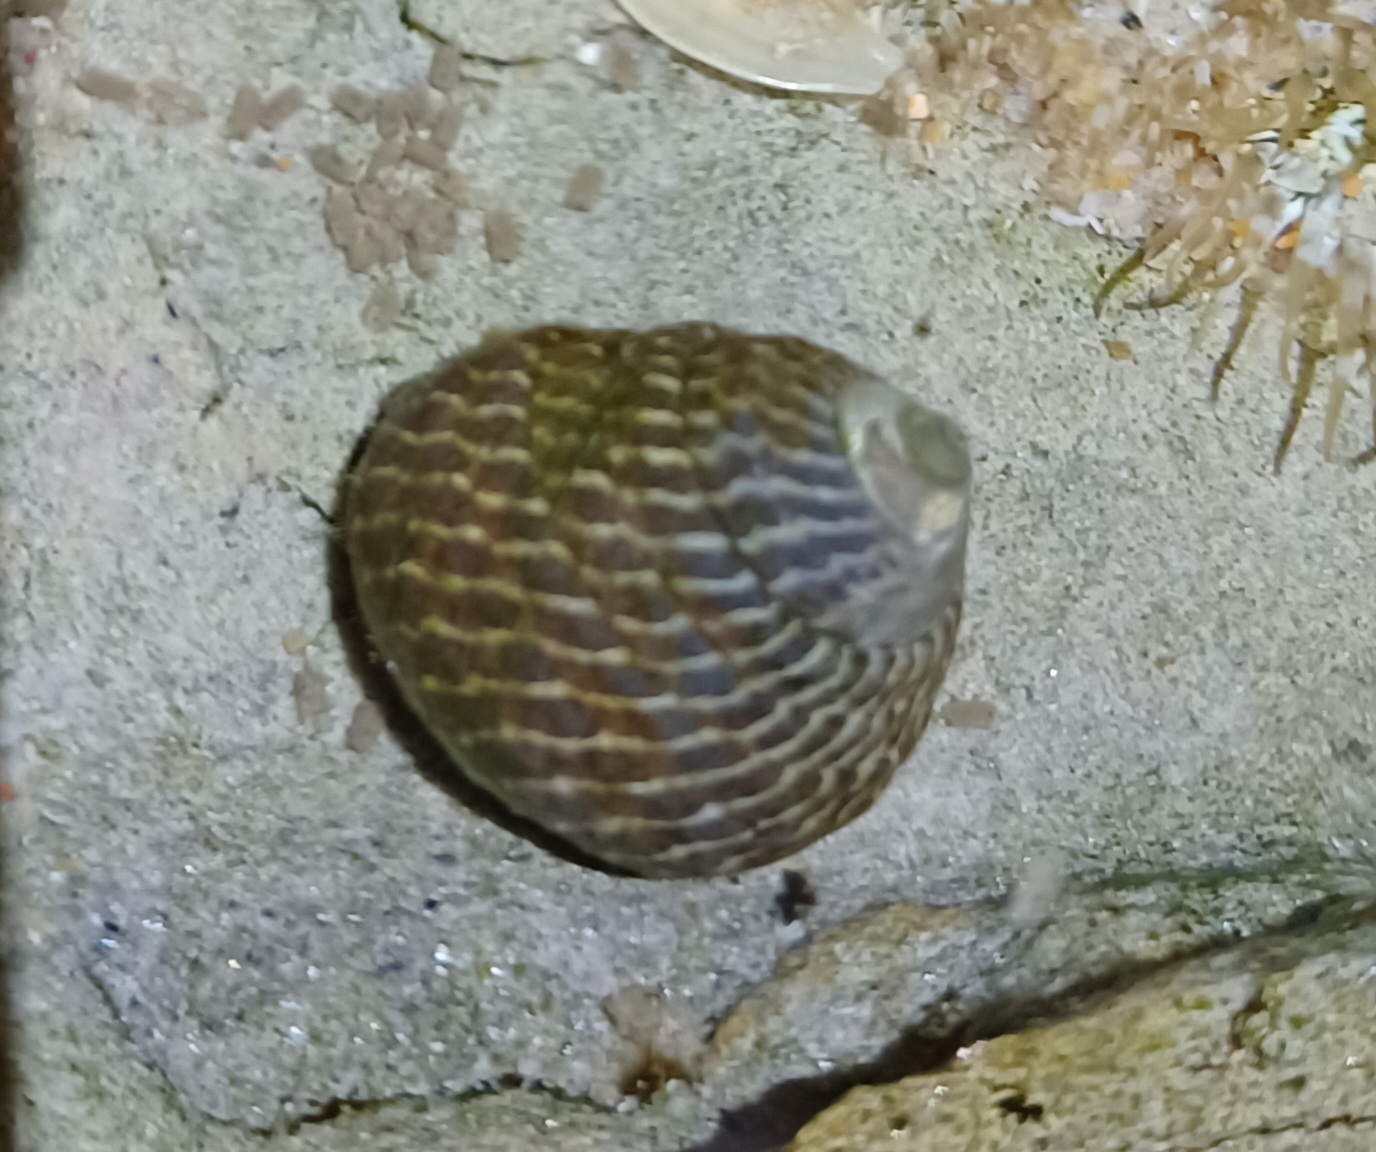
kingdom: Animalia
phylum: Mollusca
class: Gastropoda
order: Trochida
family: Trochidae
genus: Austrocochlea
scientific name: Austrocochlea porcata
